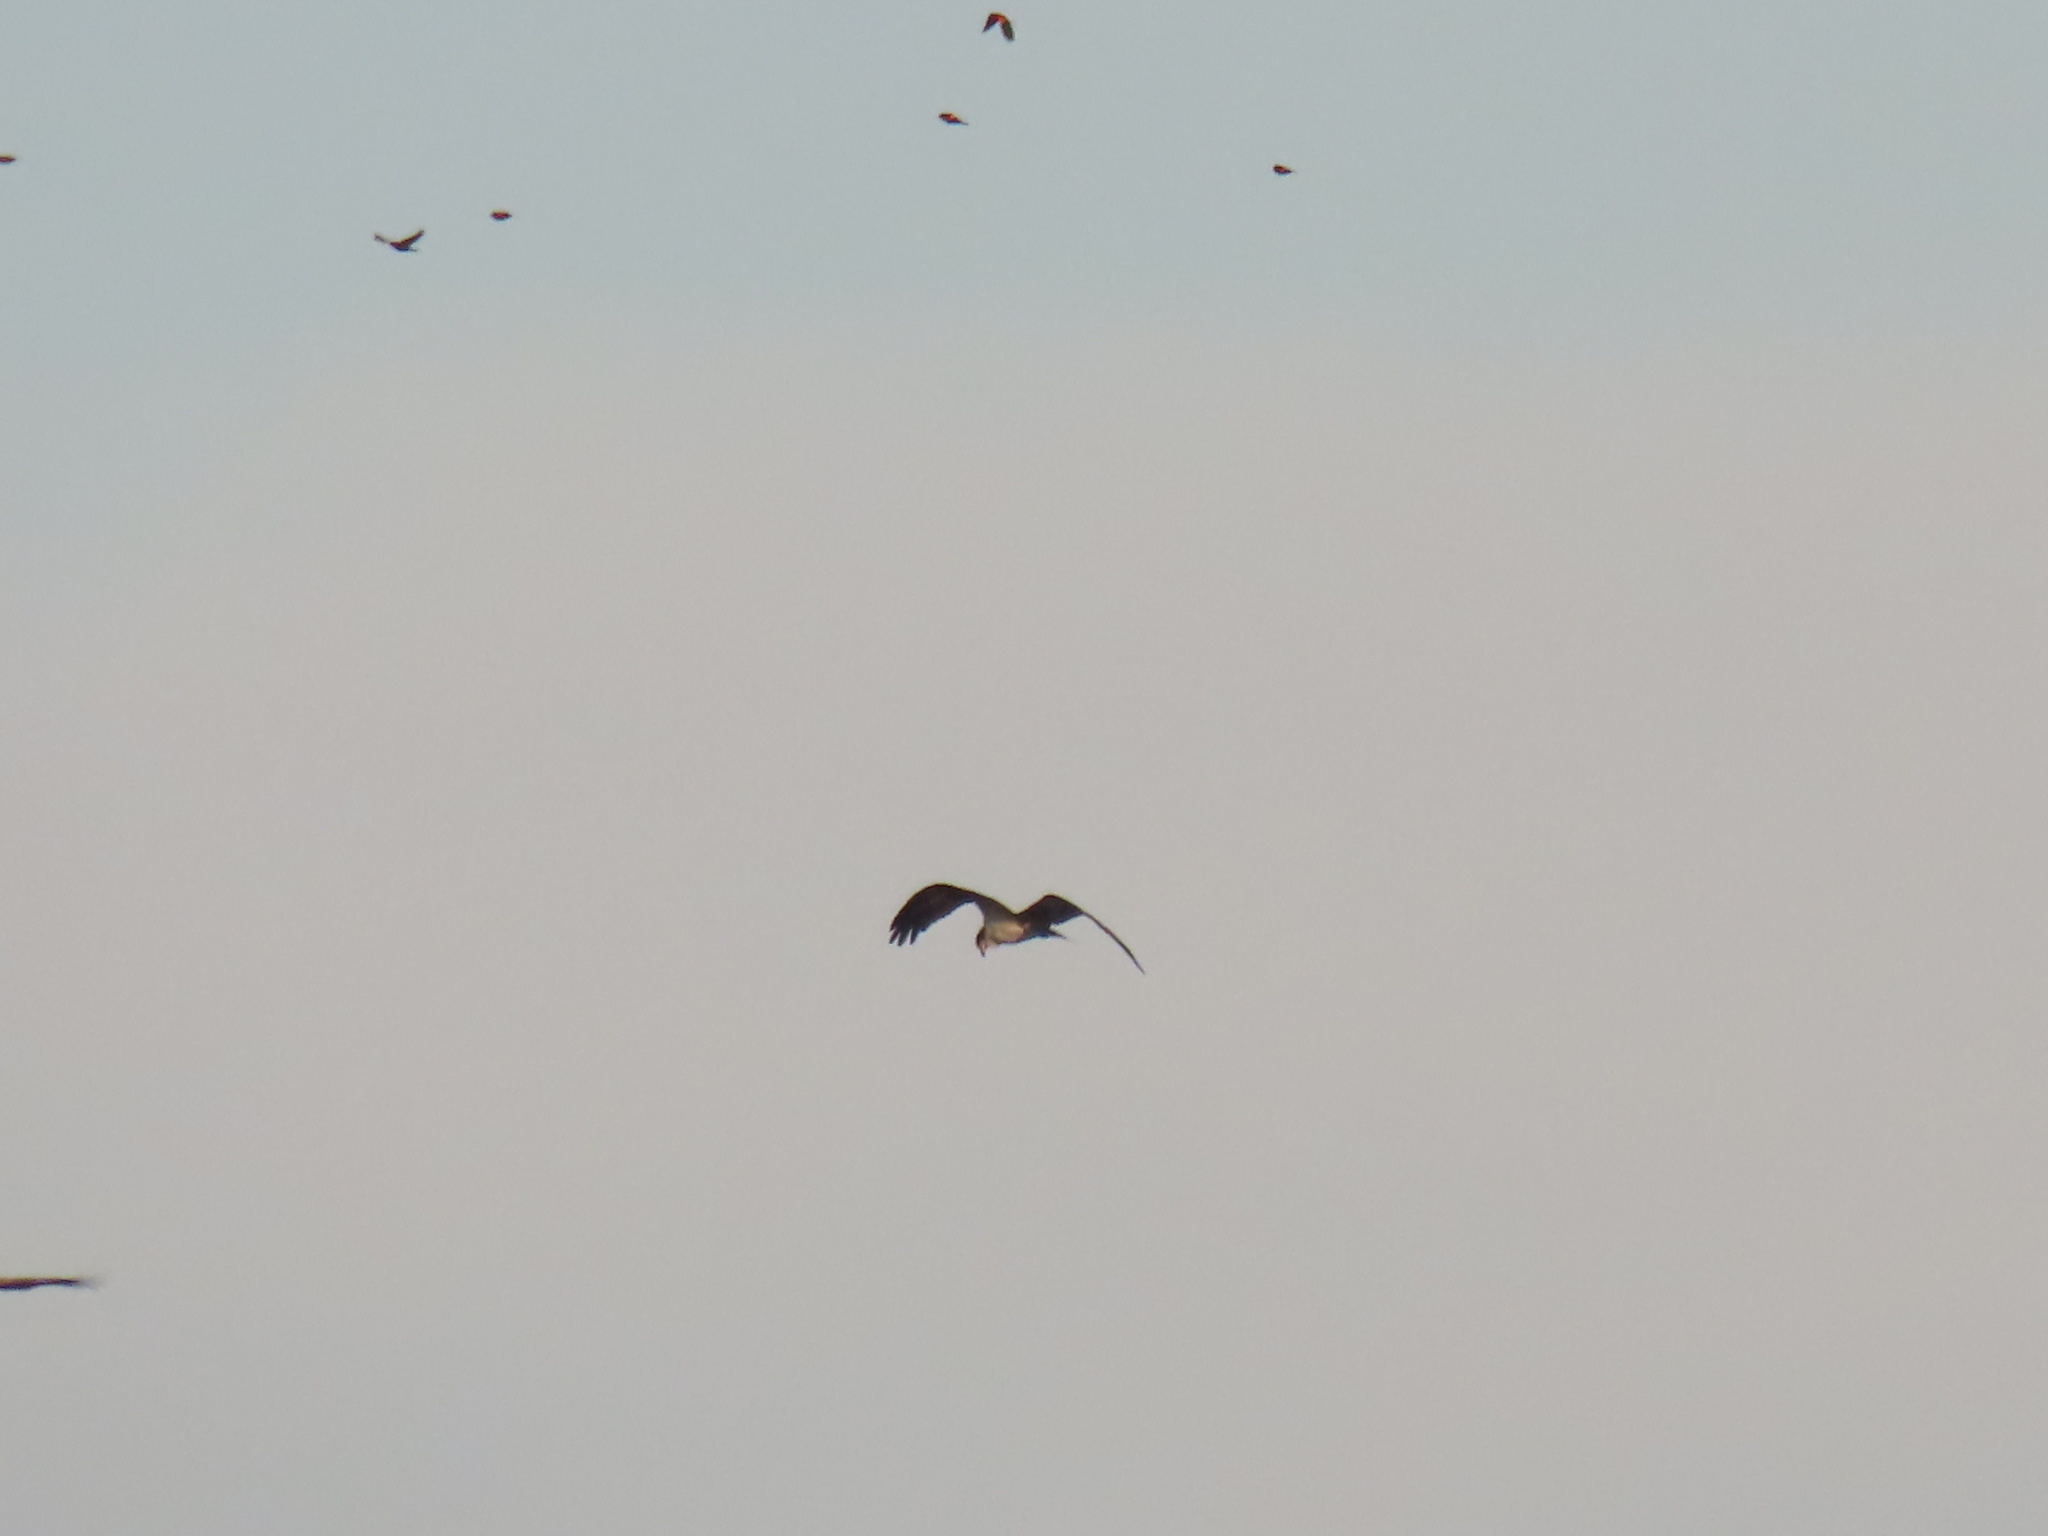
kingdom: Animalia
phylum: Chordata
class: Aves
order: Accipitriformes
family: Pandionidae
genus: Pandion
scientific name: Pandion haliaetus
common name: Osprey
